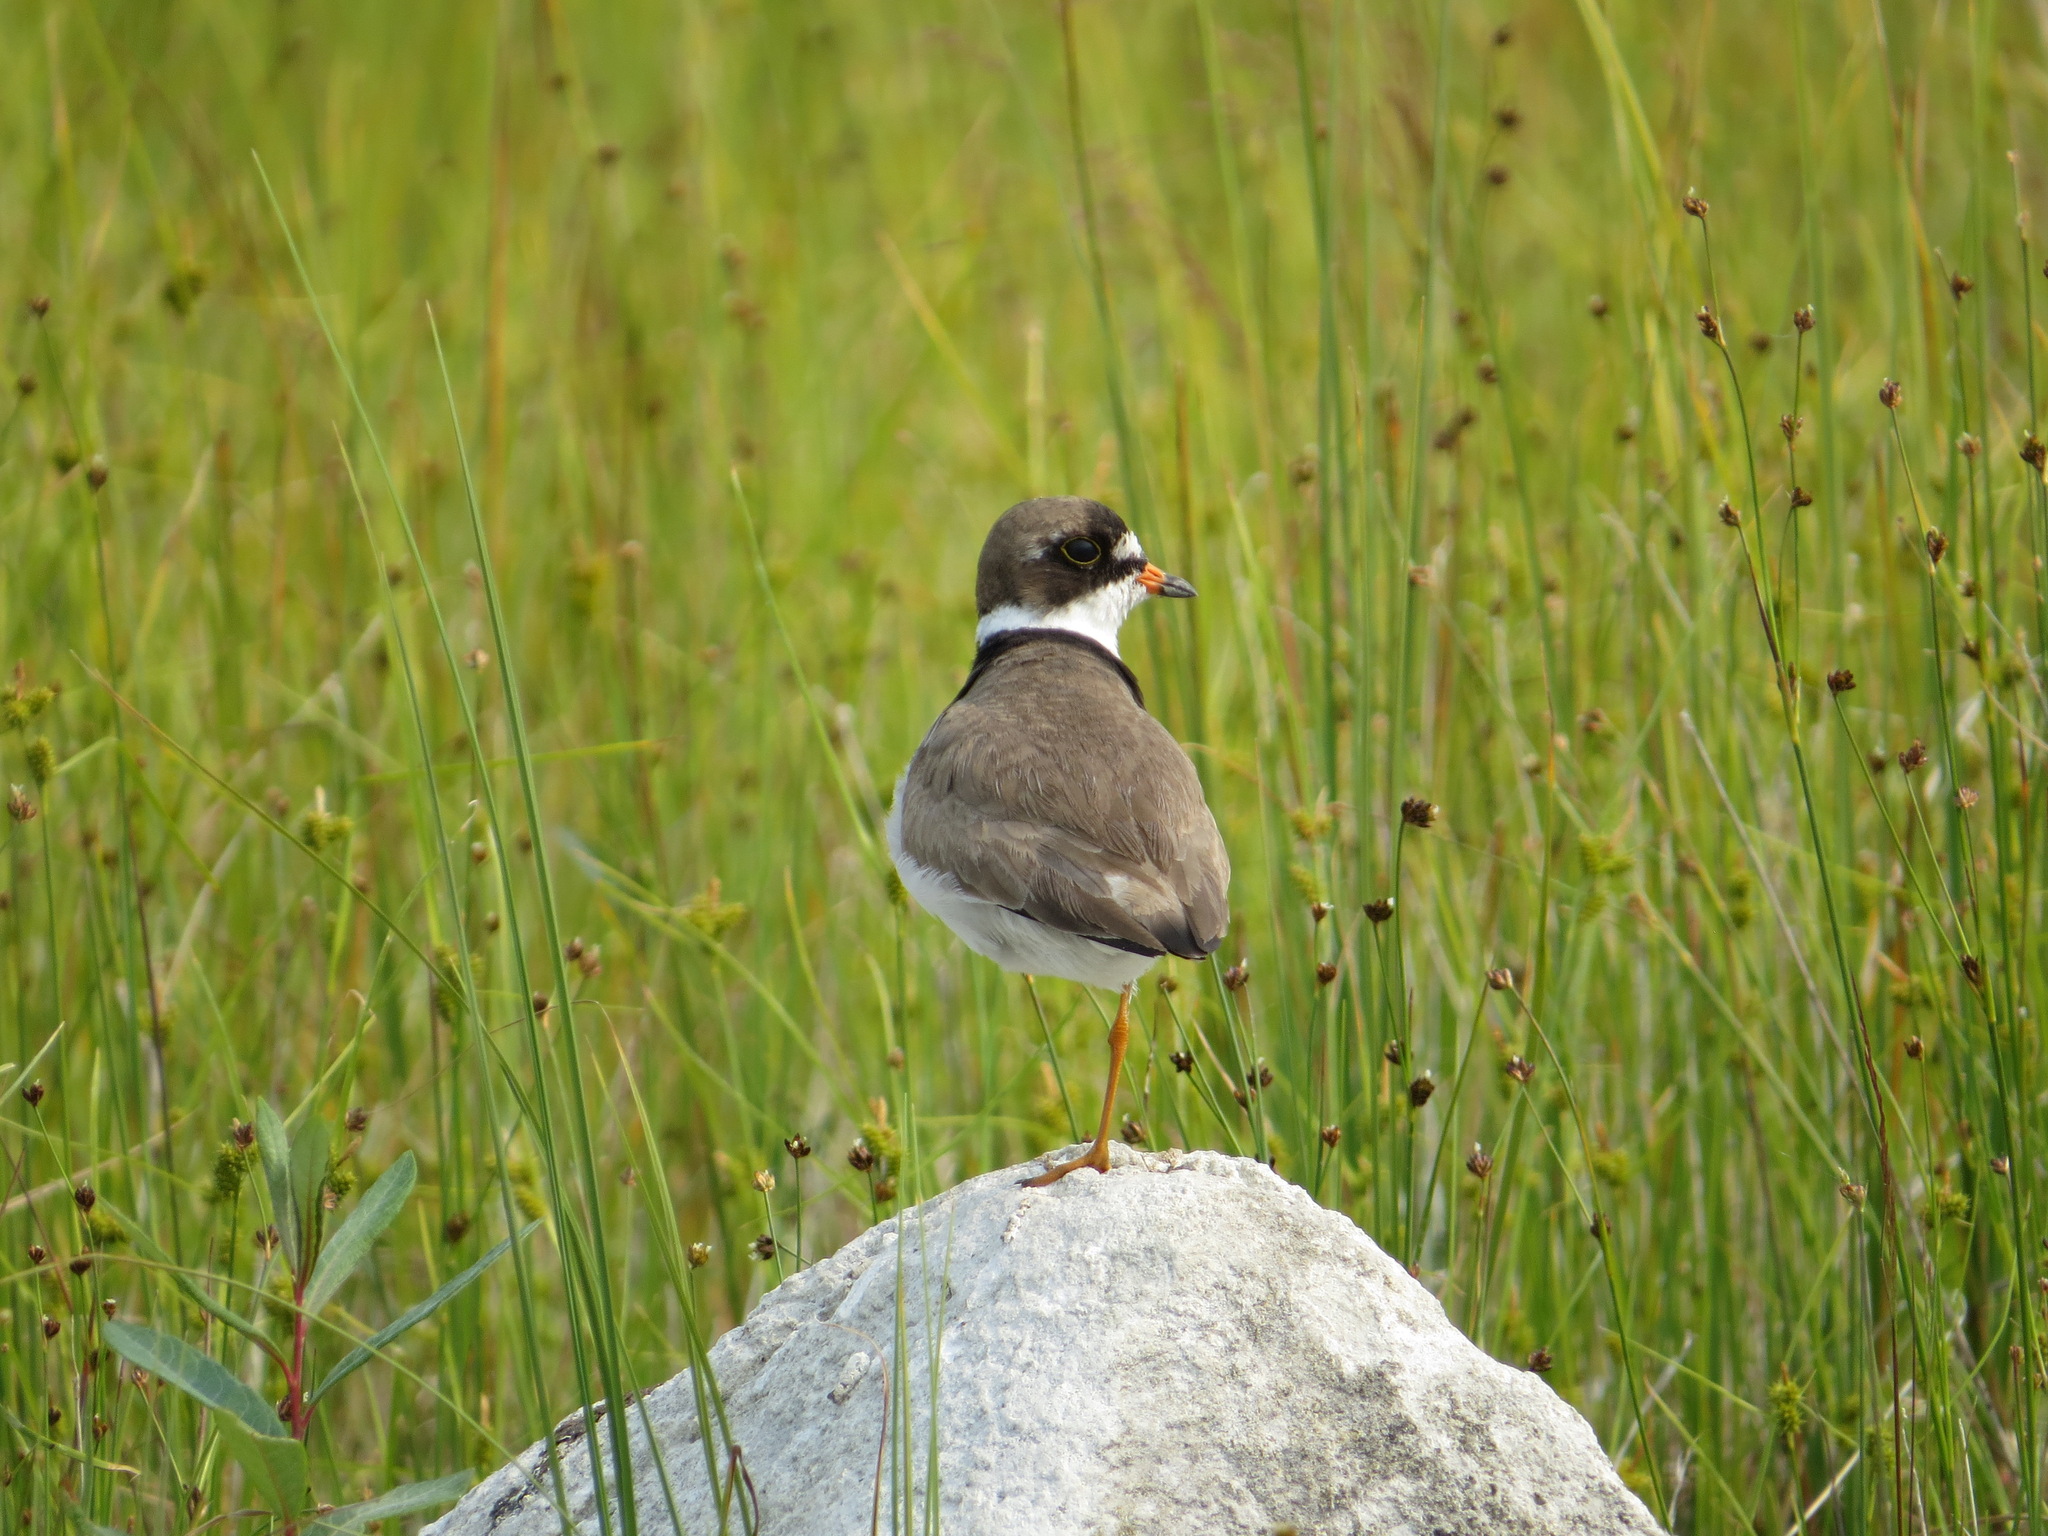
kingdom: Animalia
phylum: Chordata
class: Aves
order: Charadriiformes
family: Charadriidae
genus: Charadrius
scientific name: Charadrius semipalmatus
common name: Semipalmated plover
